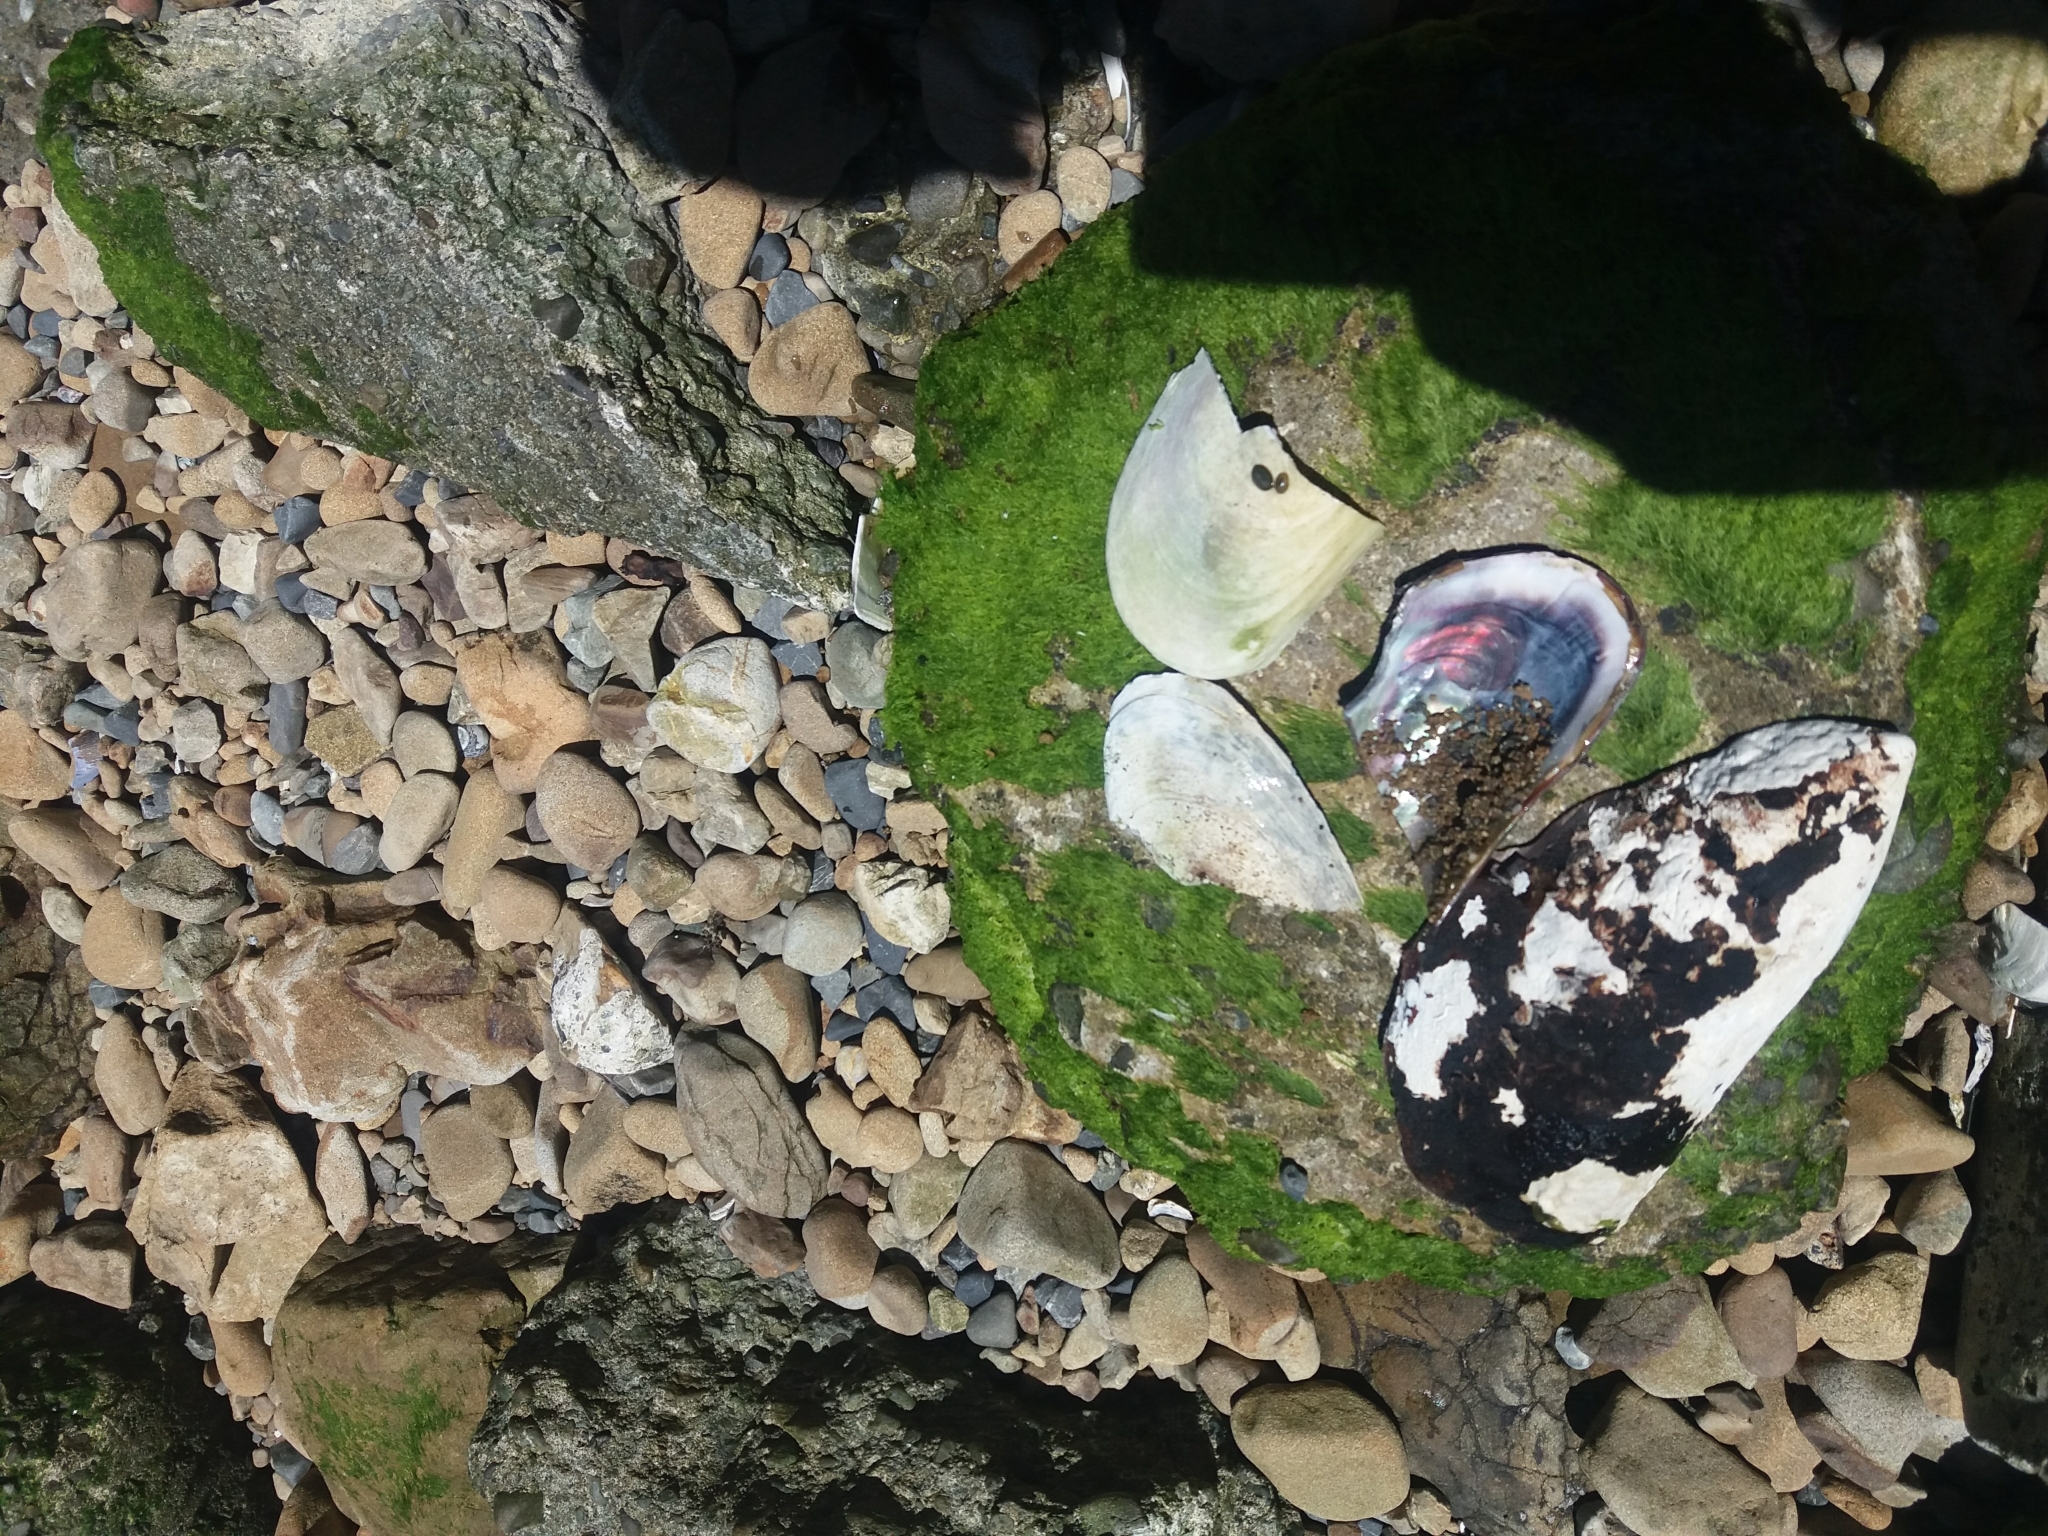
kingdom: Animalia
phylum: Mollusca
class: Bivalvia
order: Mytilida
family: Mytilidae
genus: Perna
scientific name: Perna canaliculus
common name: New zealand greenshelltm
